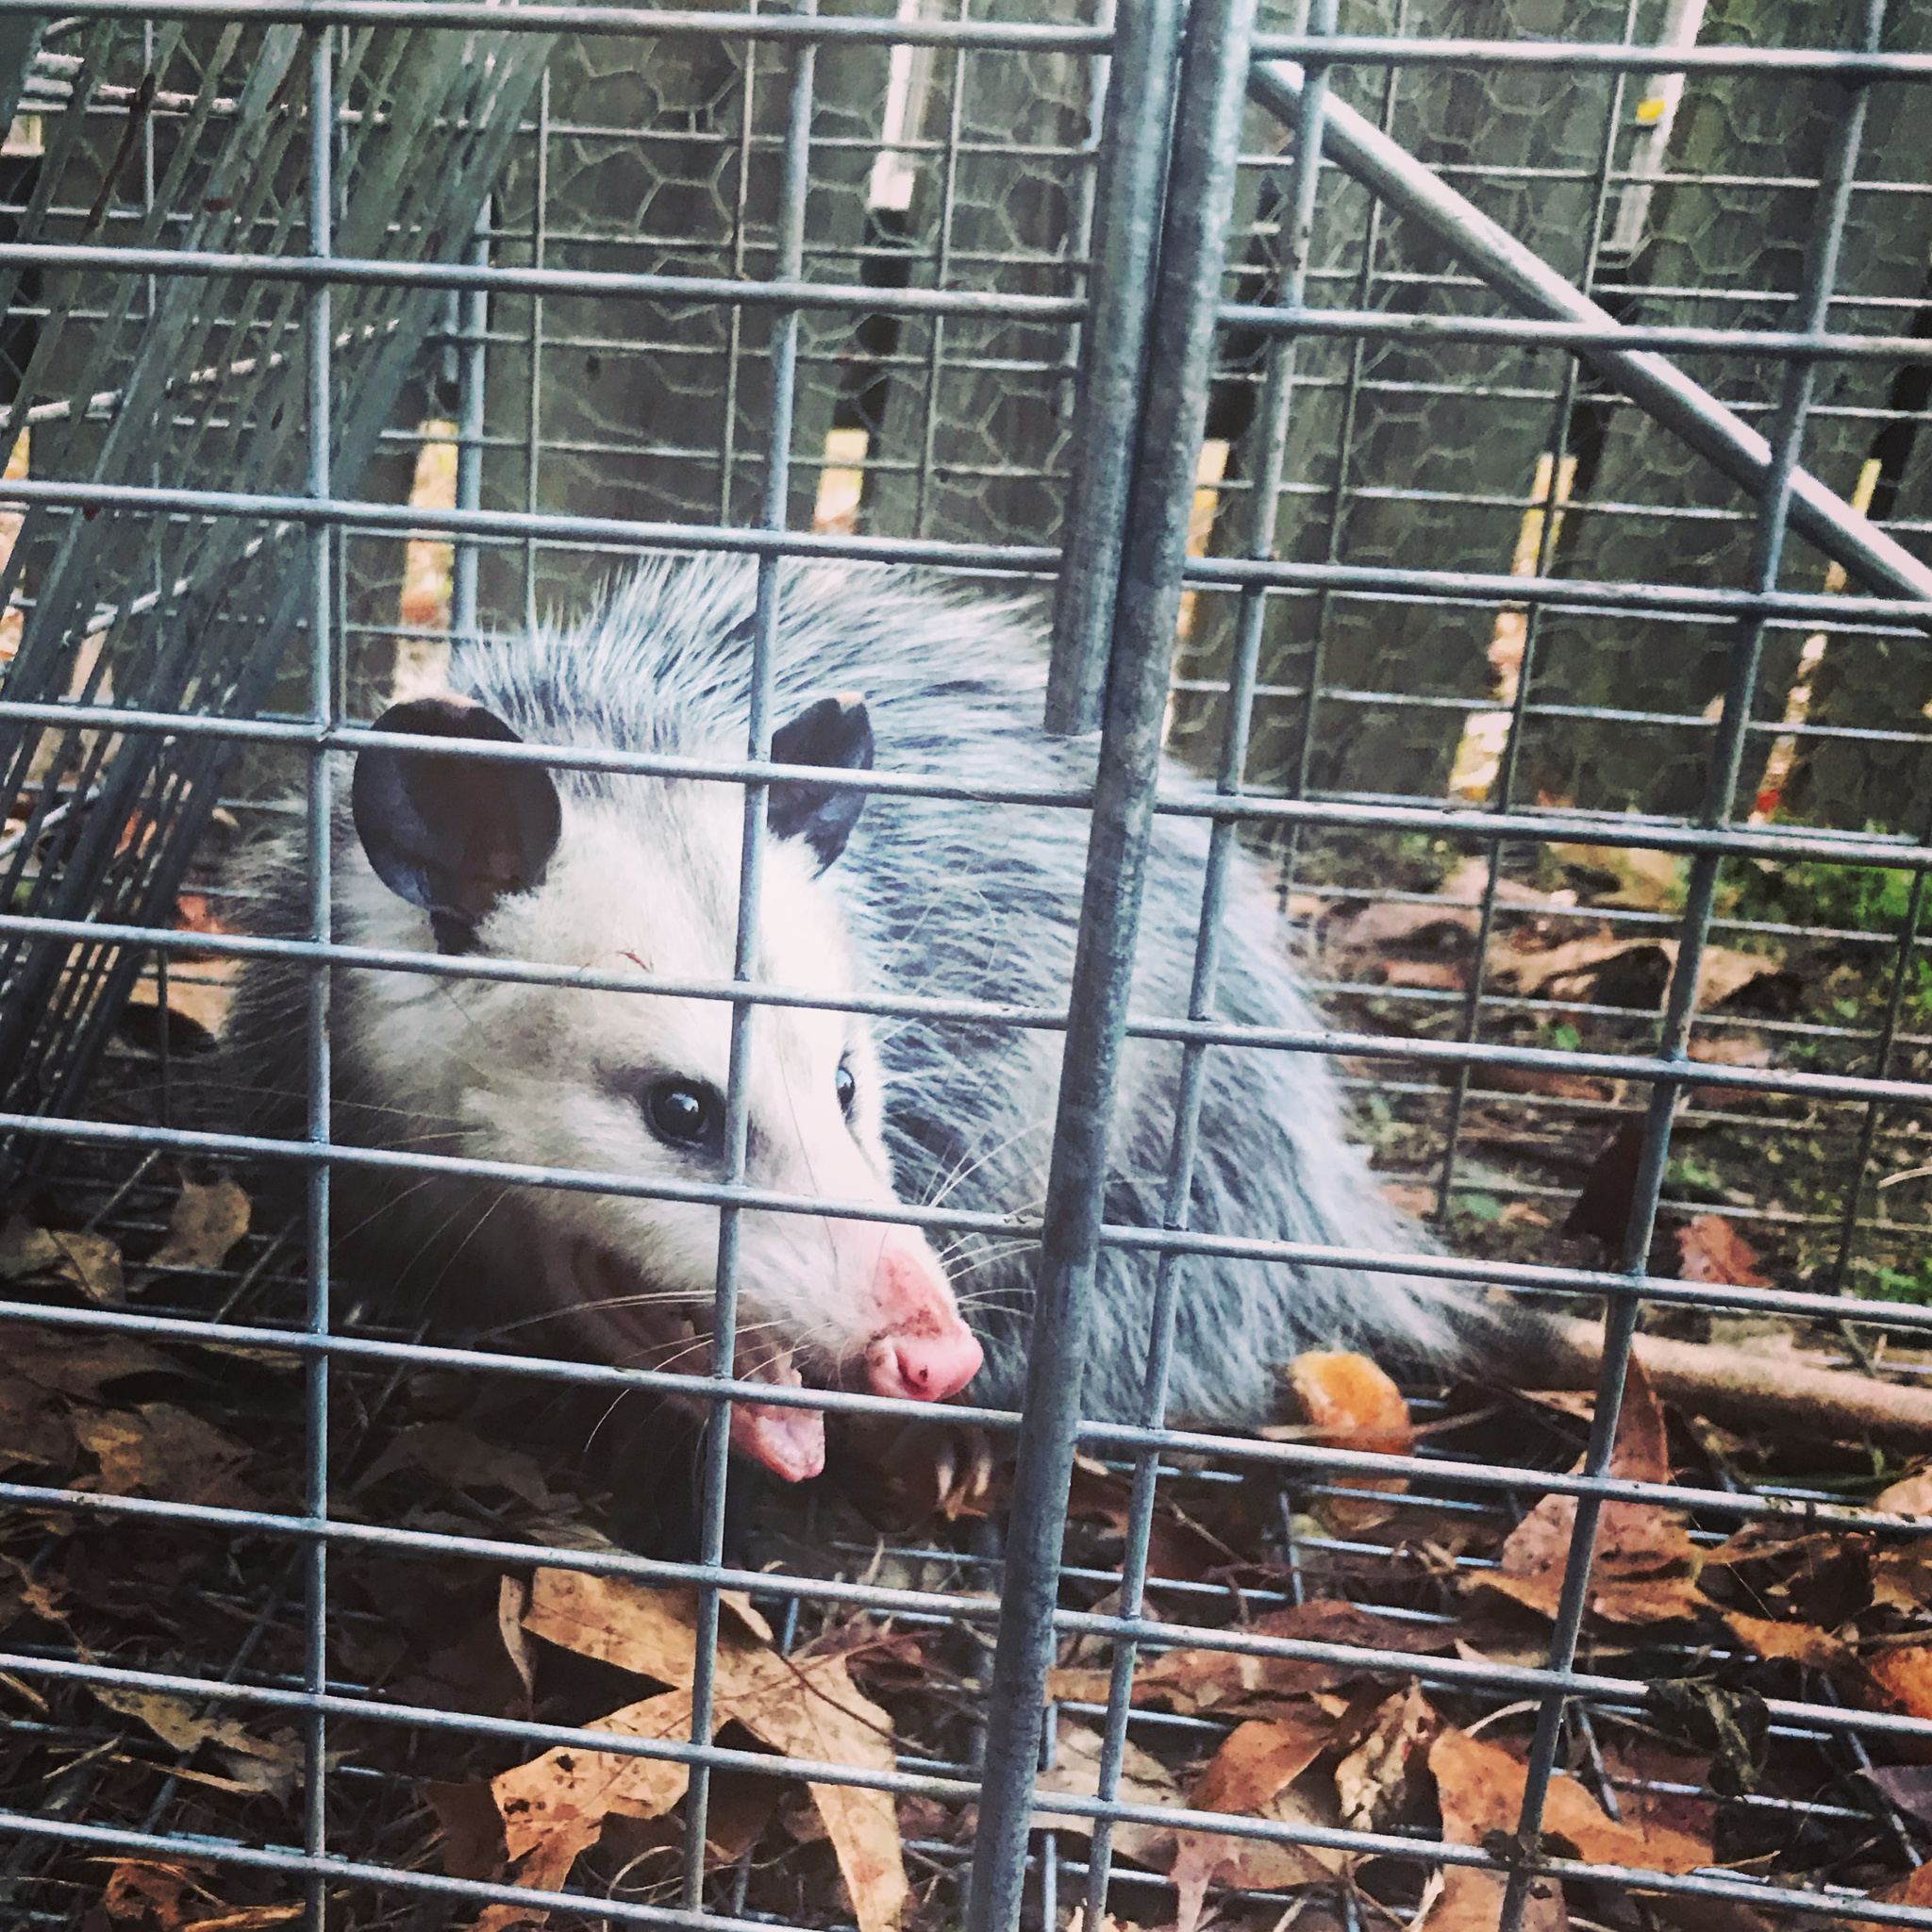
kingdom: Animalia
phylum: Chordata
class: Mammalia
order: Didelphimorphia
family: Didelphidae
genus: Didelphis
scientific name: Didelphis virginiana
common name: Virginia opossum
